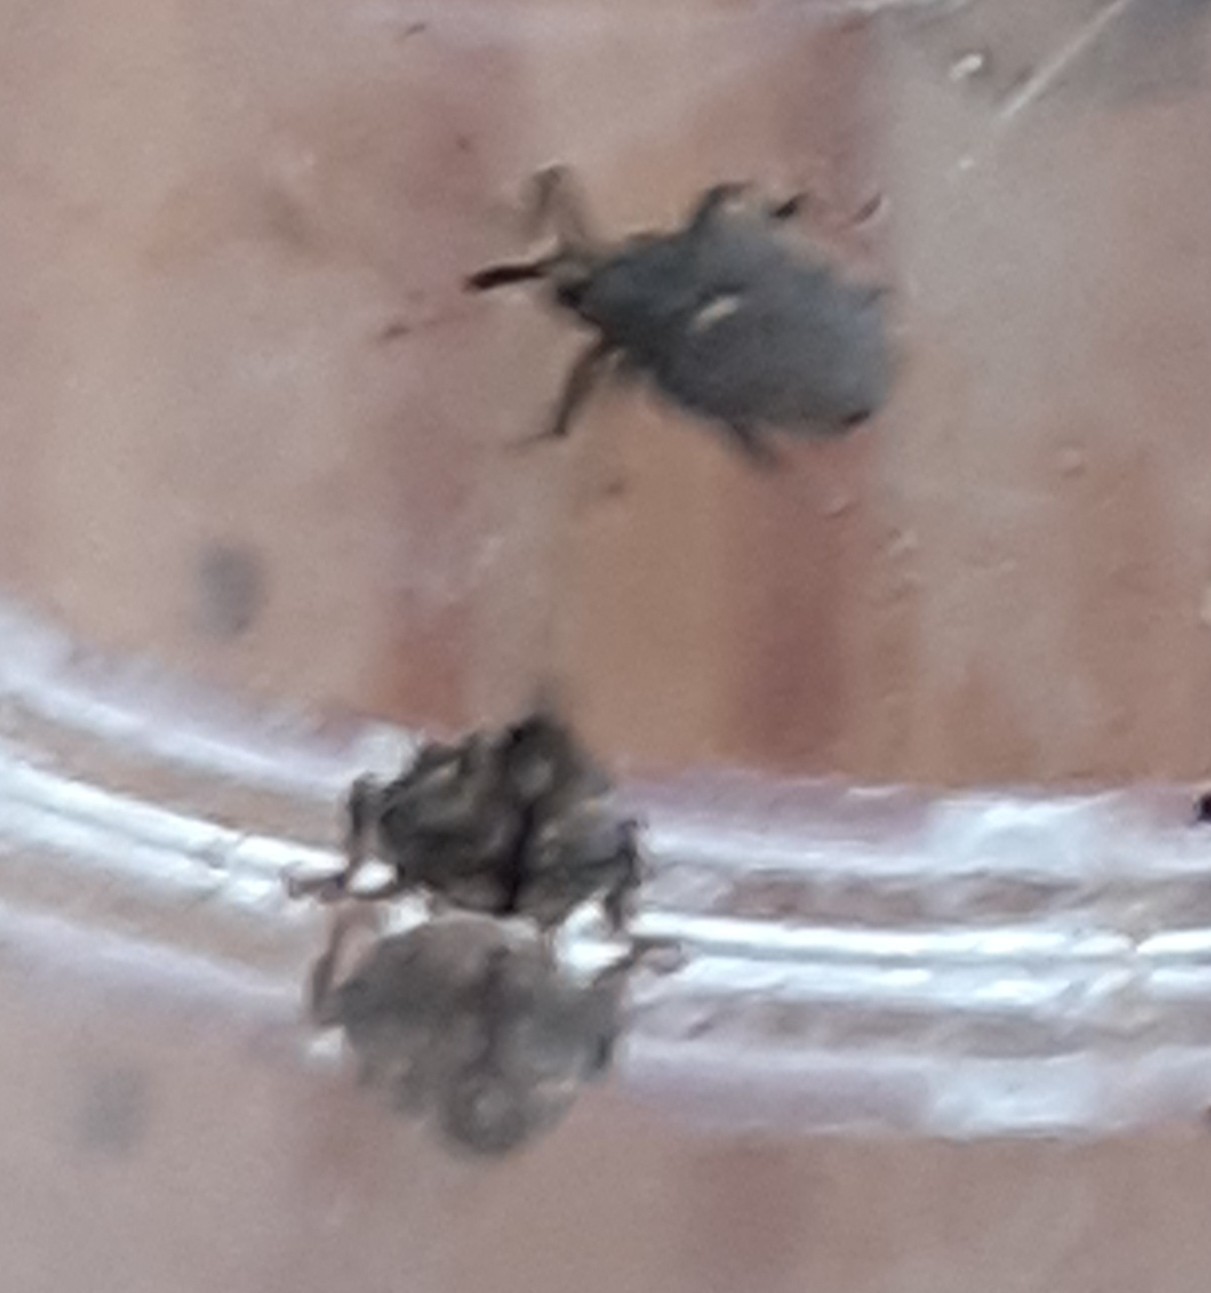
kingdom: Animalia
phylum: Arthropoda
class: Insecta
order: Coleoptera
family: Curculionidae
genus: Ceutorhynchus
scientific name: Ceutorhynchus pallidactylus
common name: Cabbage stem weavil
